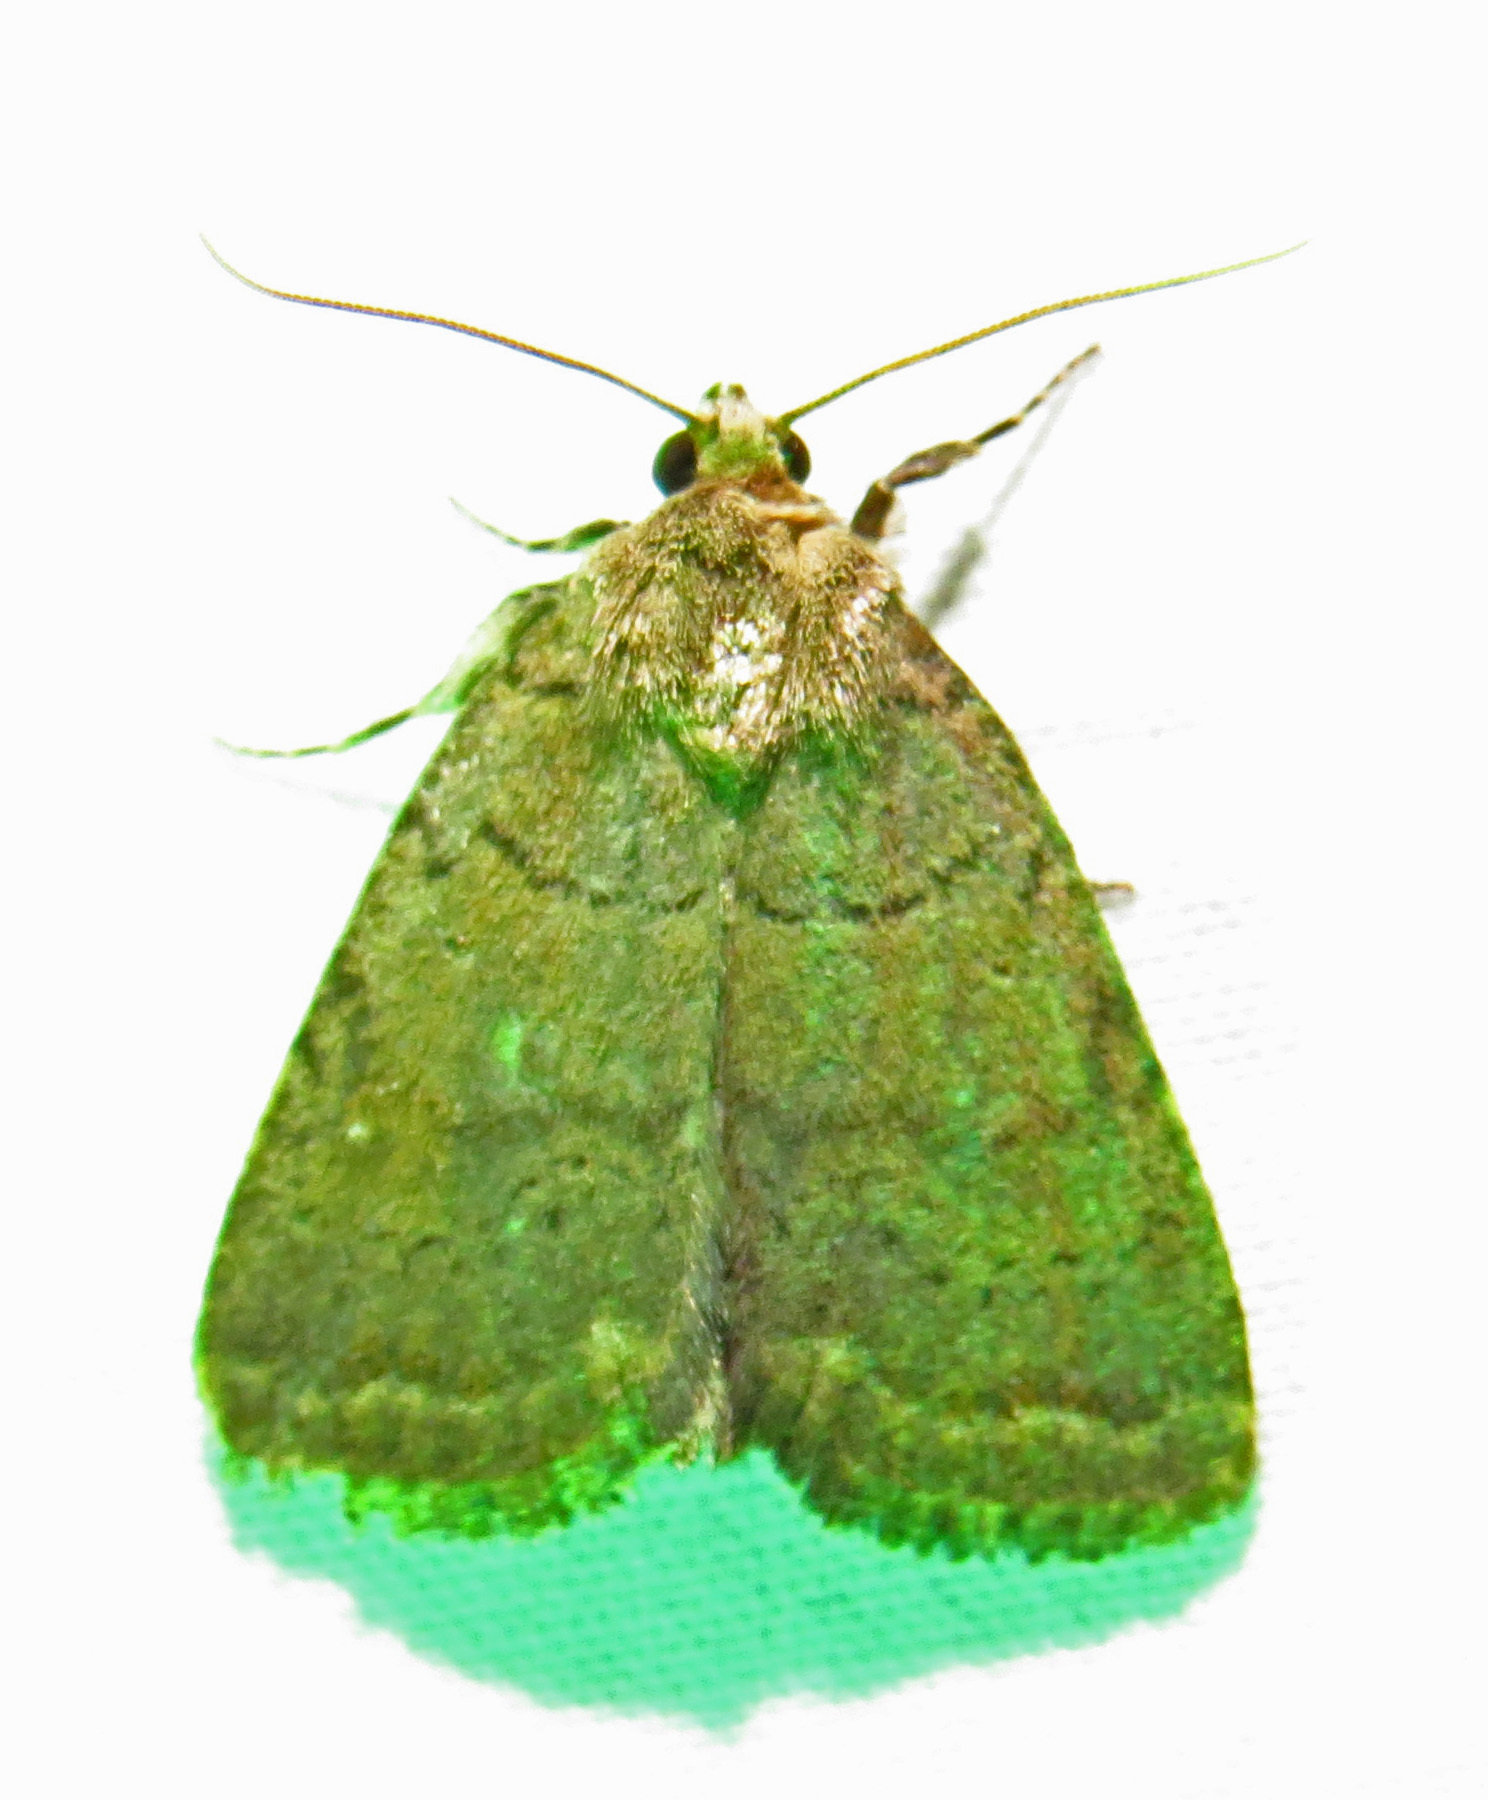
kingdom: Animalia
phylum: Arthropoda
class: Insecta
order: Lepidoptera
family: Noctuidae
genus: Athetis
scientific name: Athetis tarda
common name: Slowpoke moth
